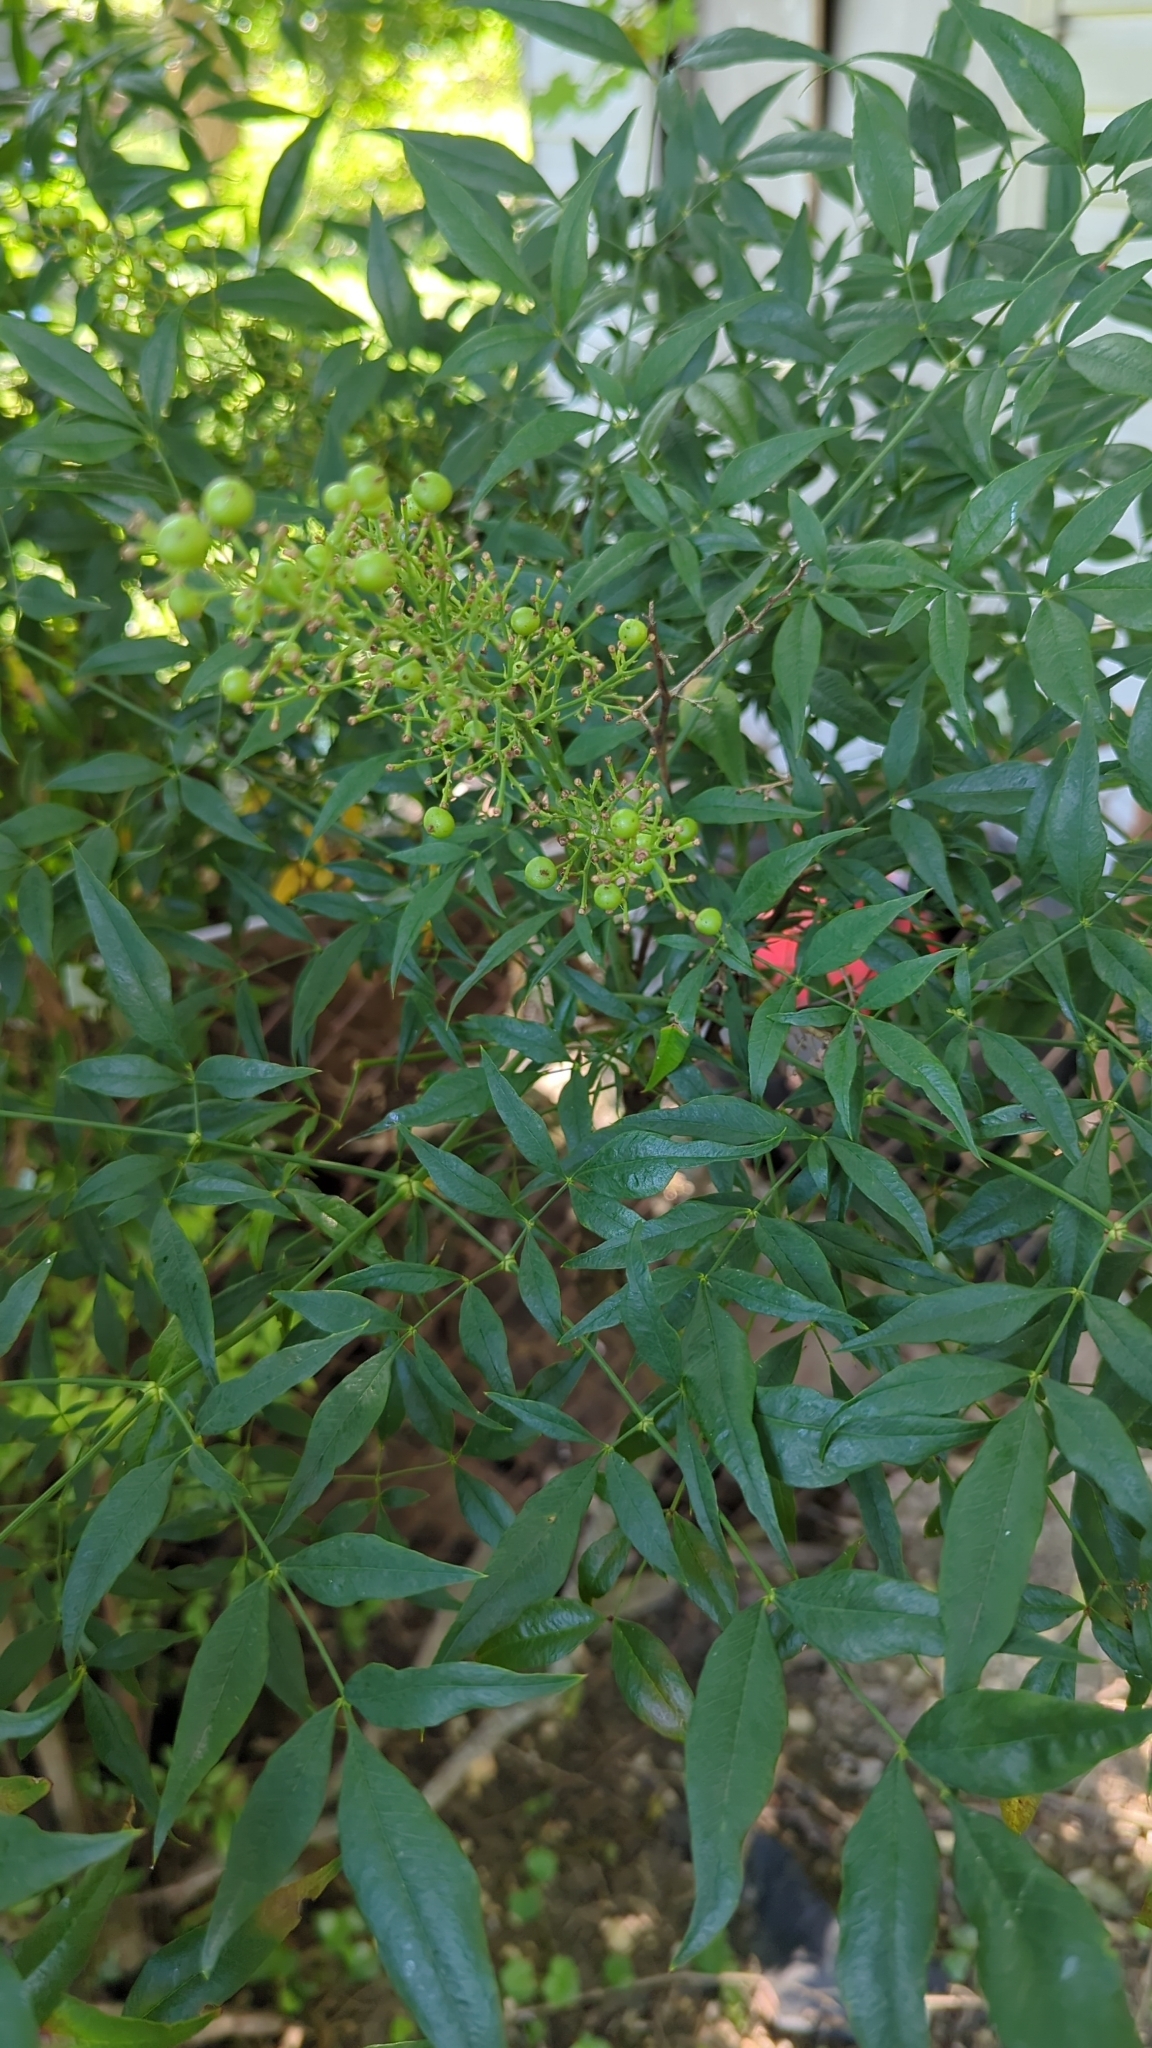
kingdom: Plantae
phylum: Tracheophyta
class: Magnoliopsida
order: Ranunculales
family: Berberidaceae
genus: Nandina
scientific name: Nandina domestica
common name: Sacred bamboo
